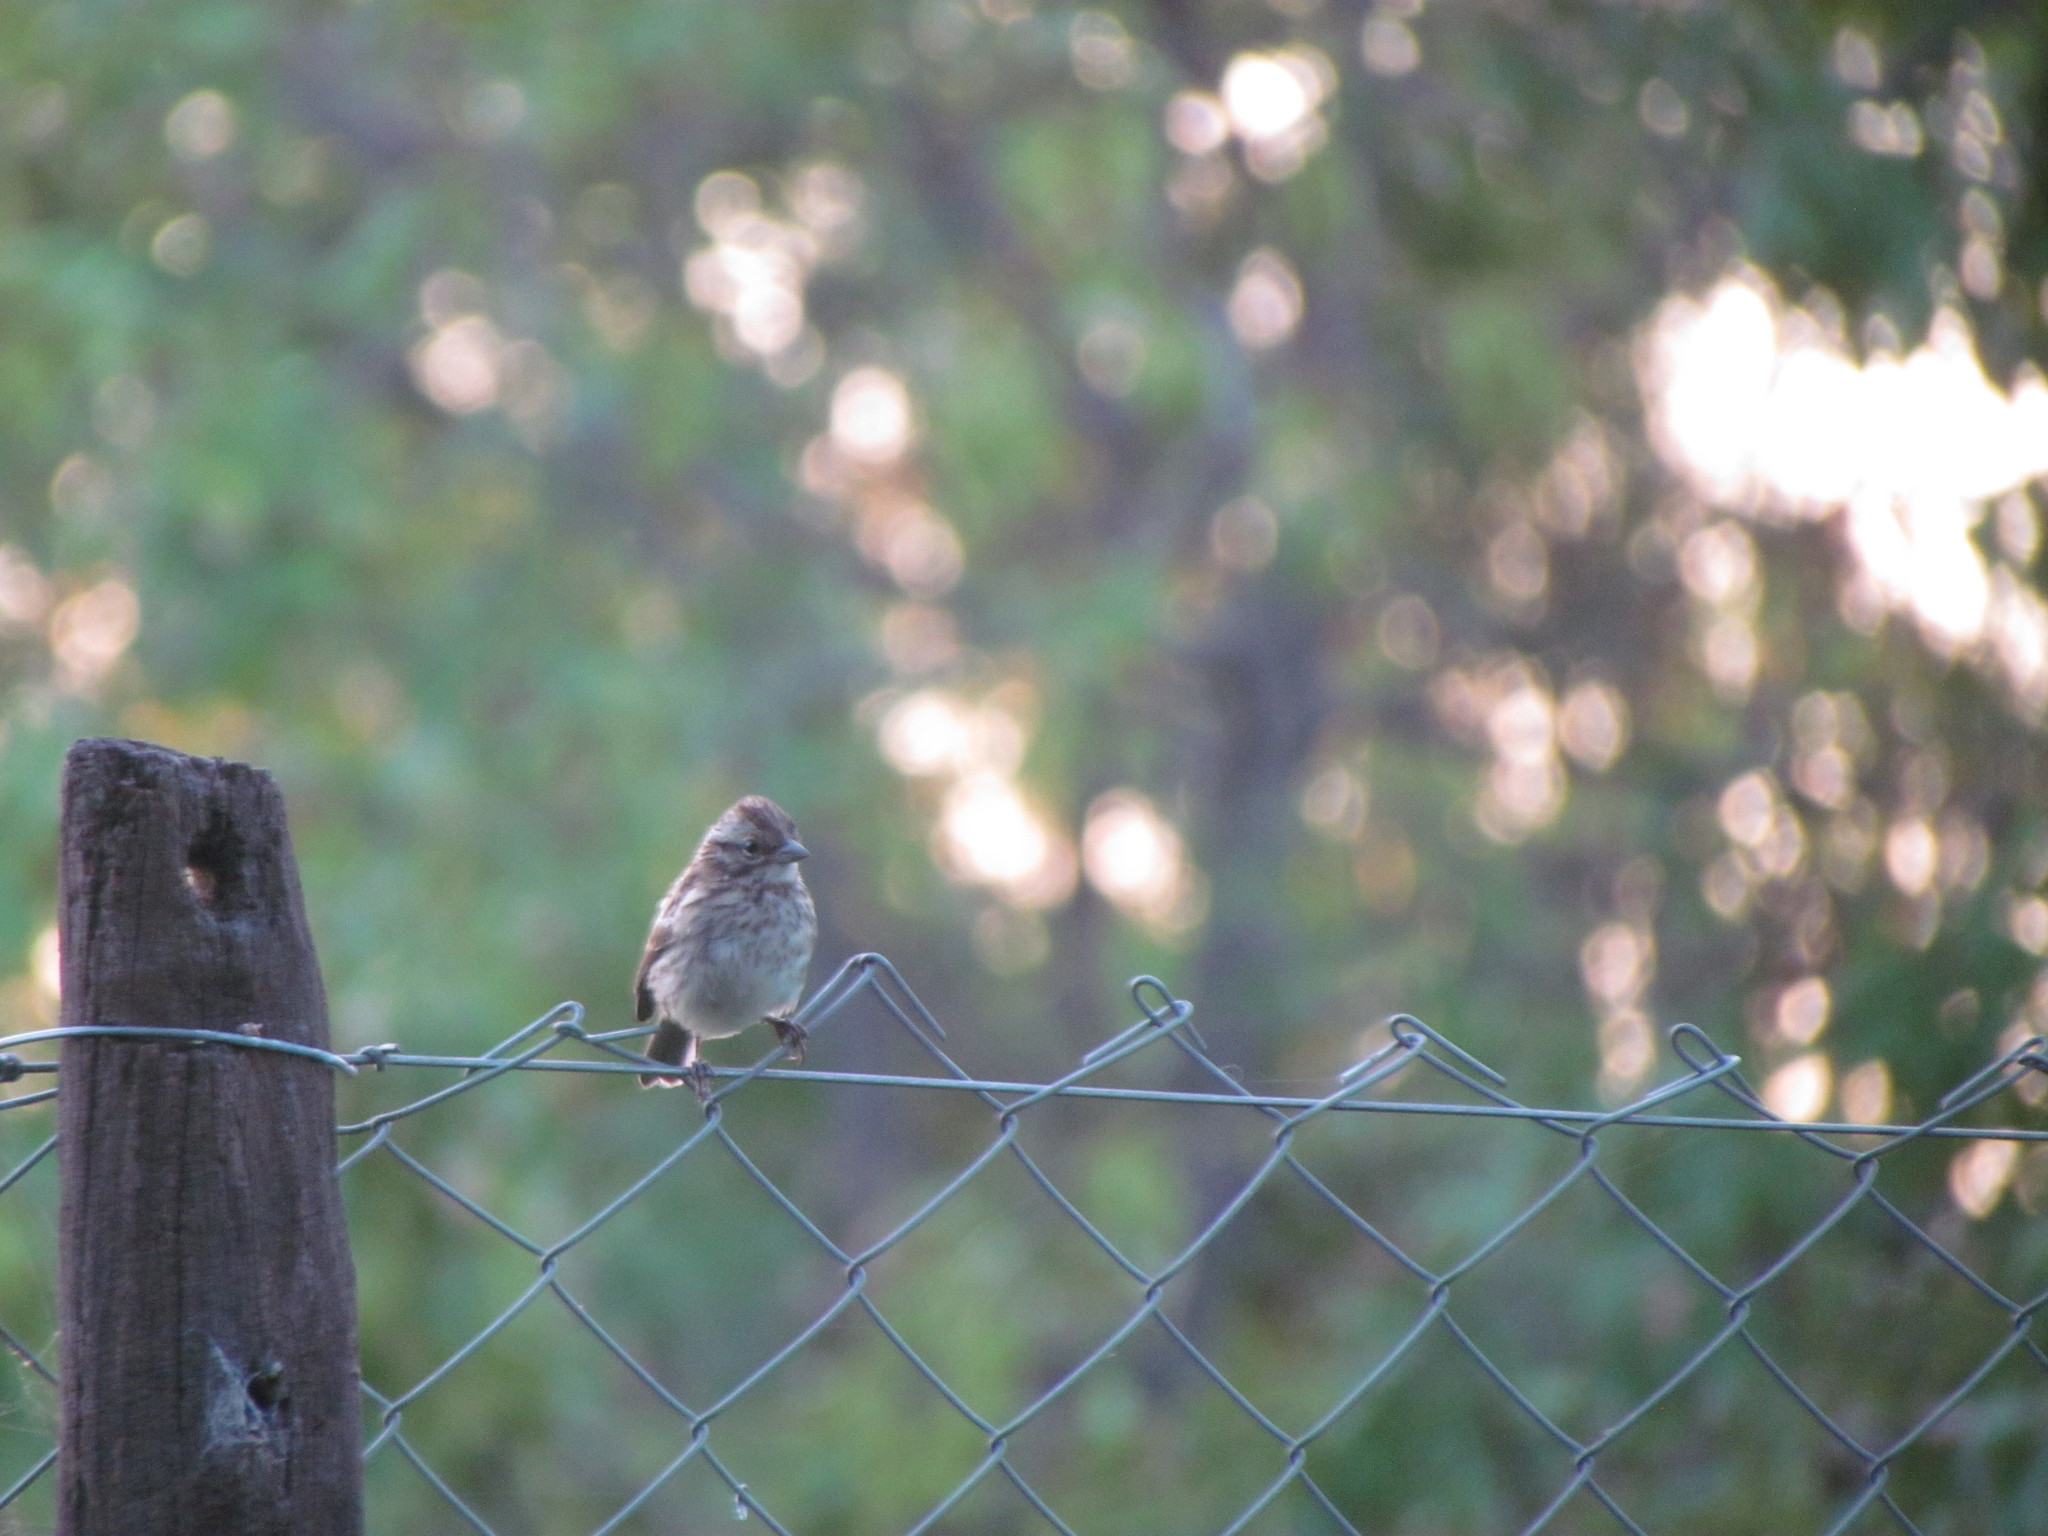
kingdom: Animalia
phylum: Chordata
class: Aves
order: Passeriformes
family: Passerellidae
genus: Zonotrichia
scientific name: Zonotrichia capensis
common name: Rufous-collared sparrow
